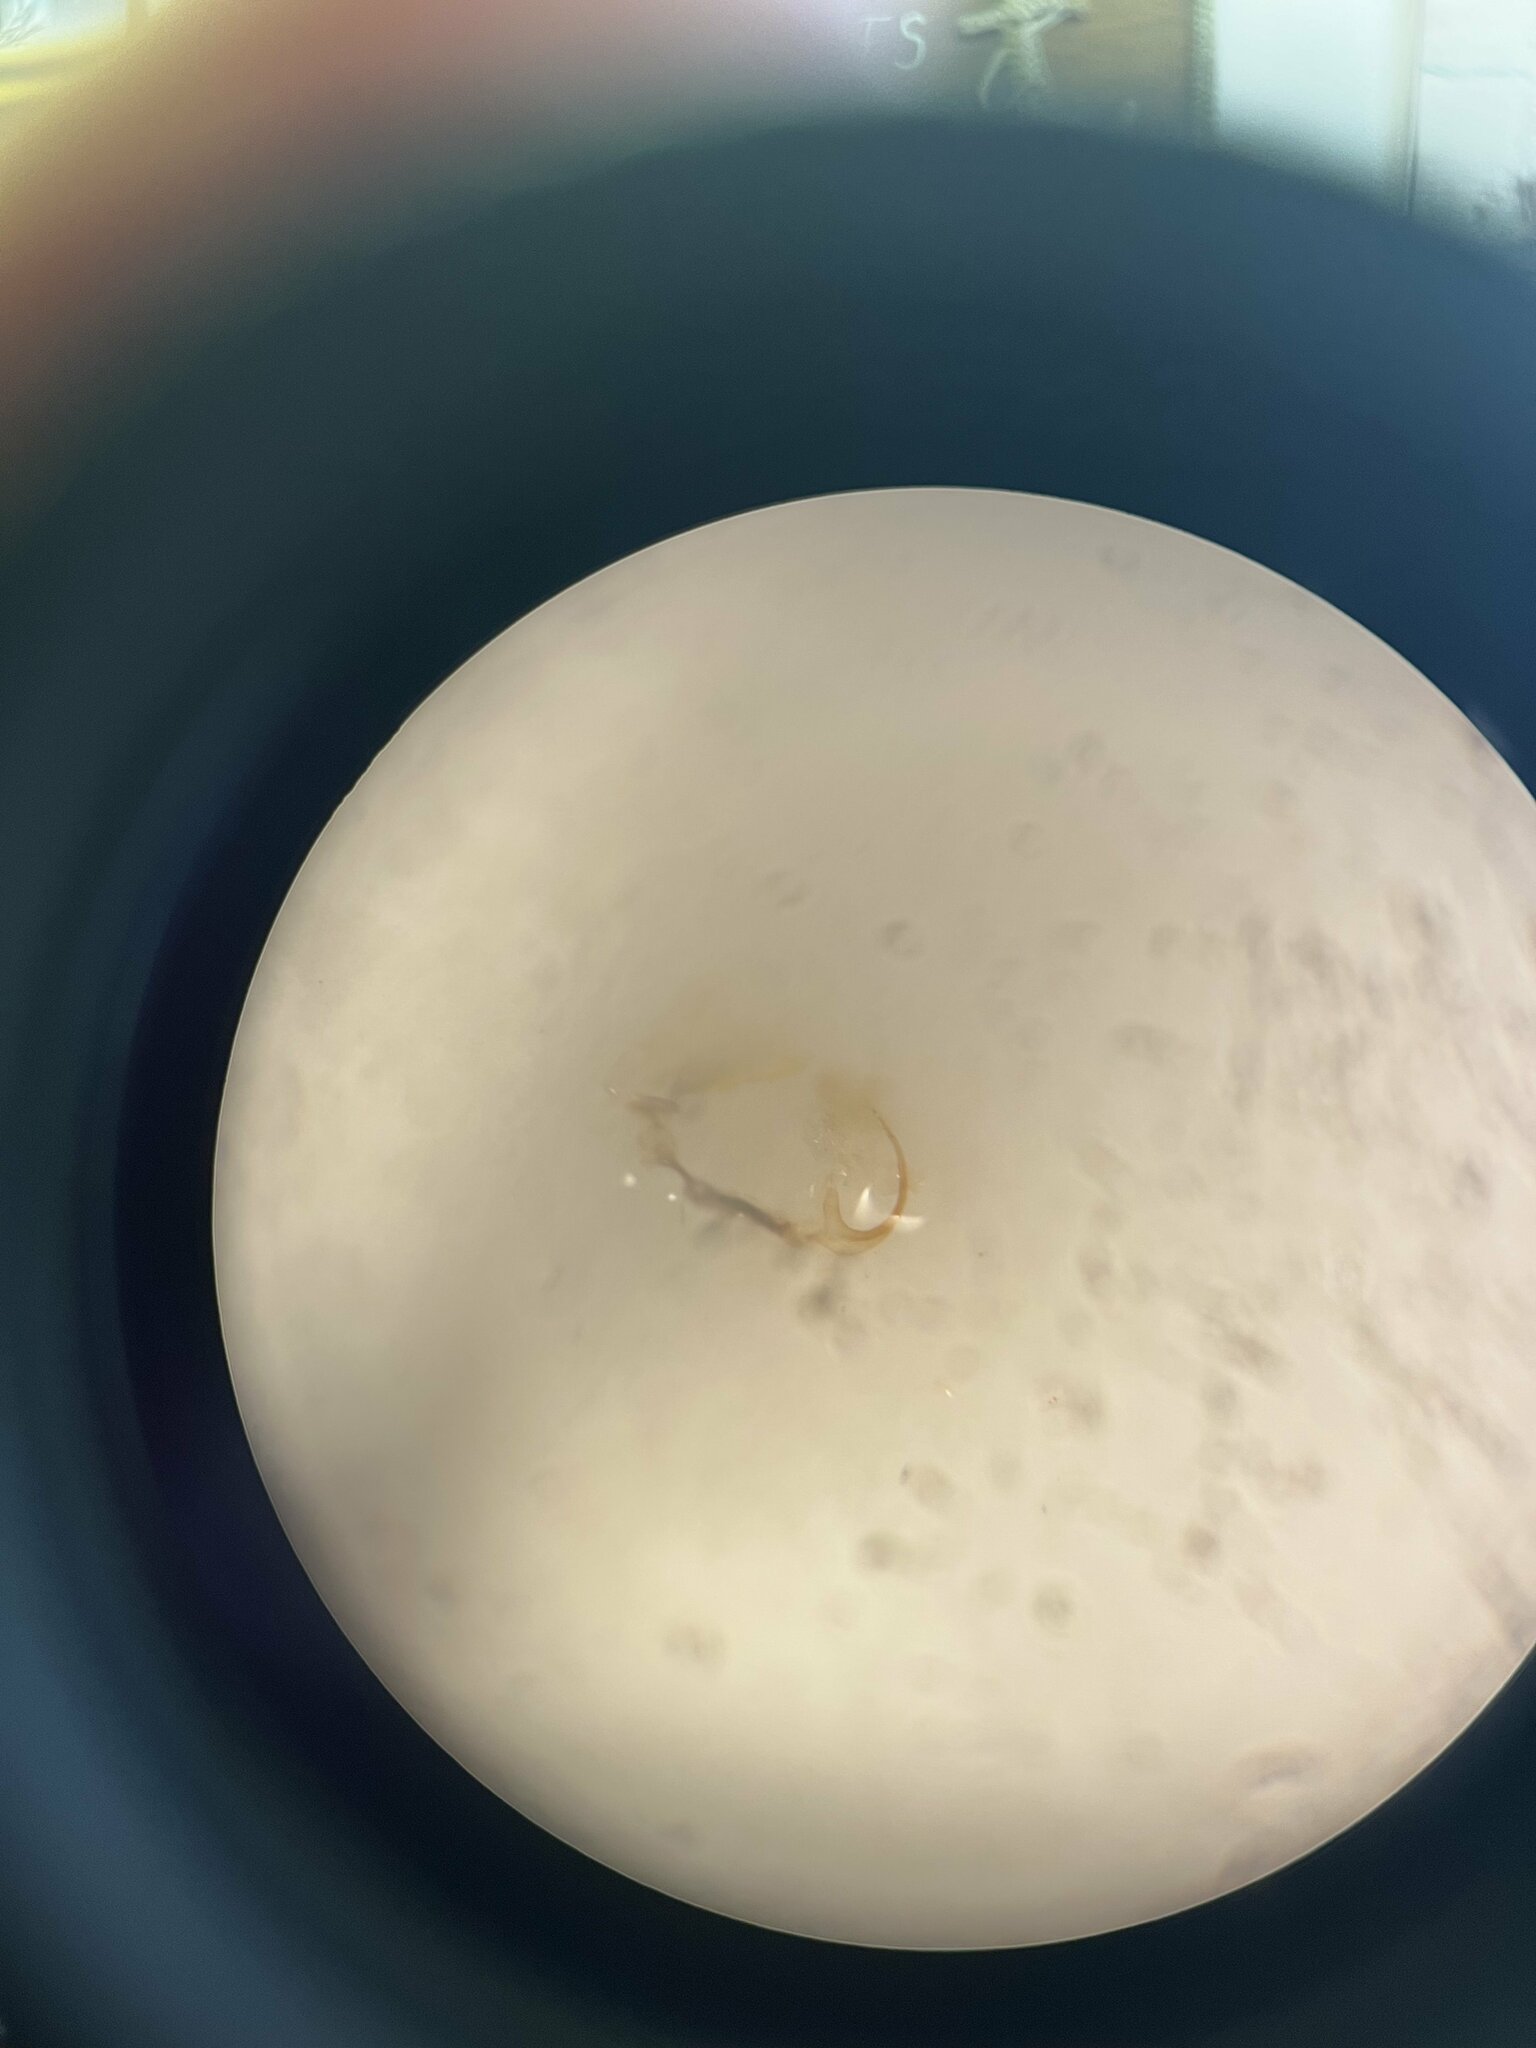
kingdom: Animalia
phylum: Arthropoda
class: Insecta
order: Hemiptera
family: Cicadellidae
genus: Balclutha
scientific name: Balclutha punctata
